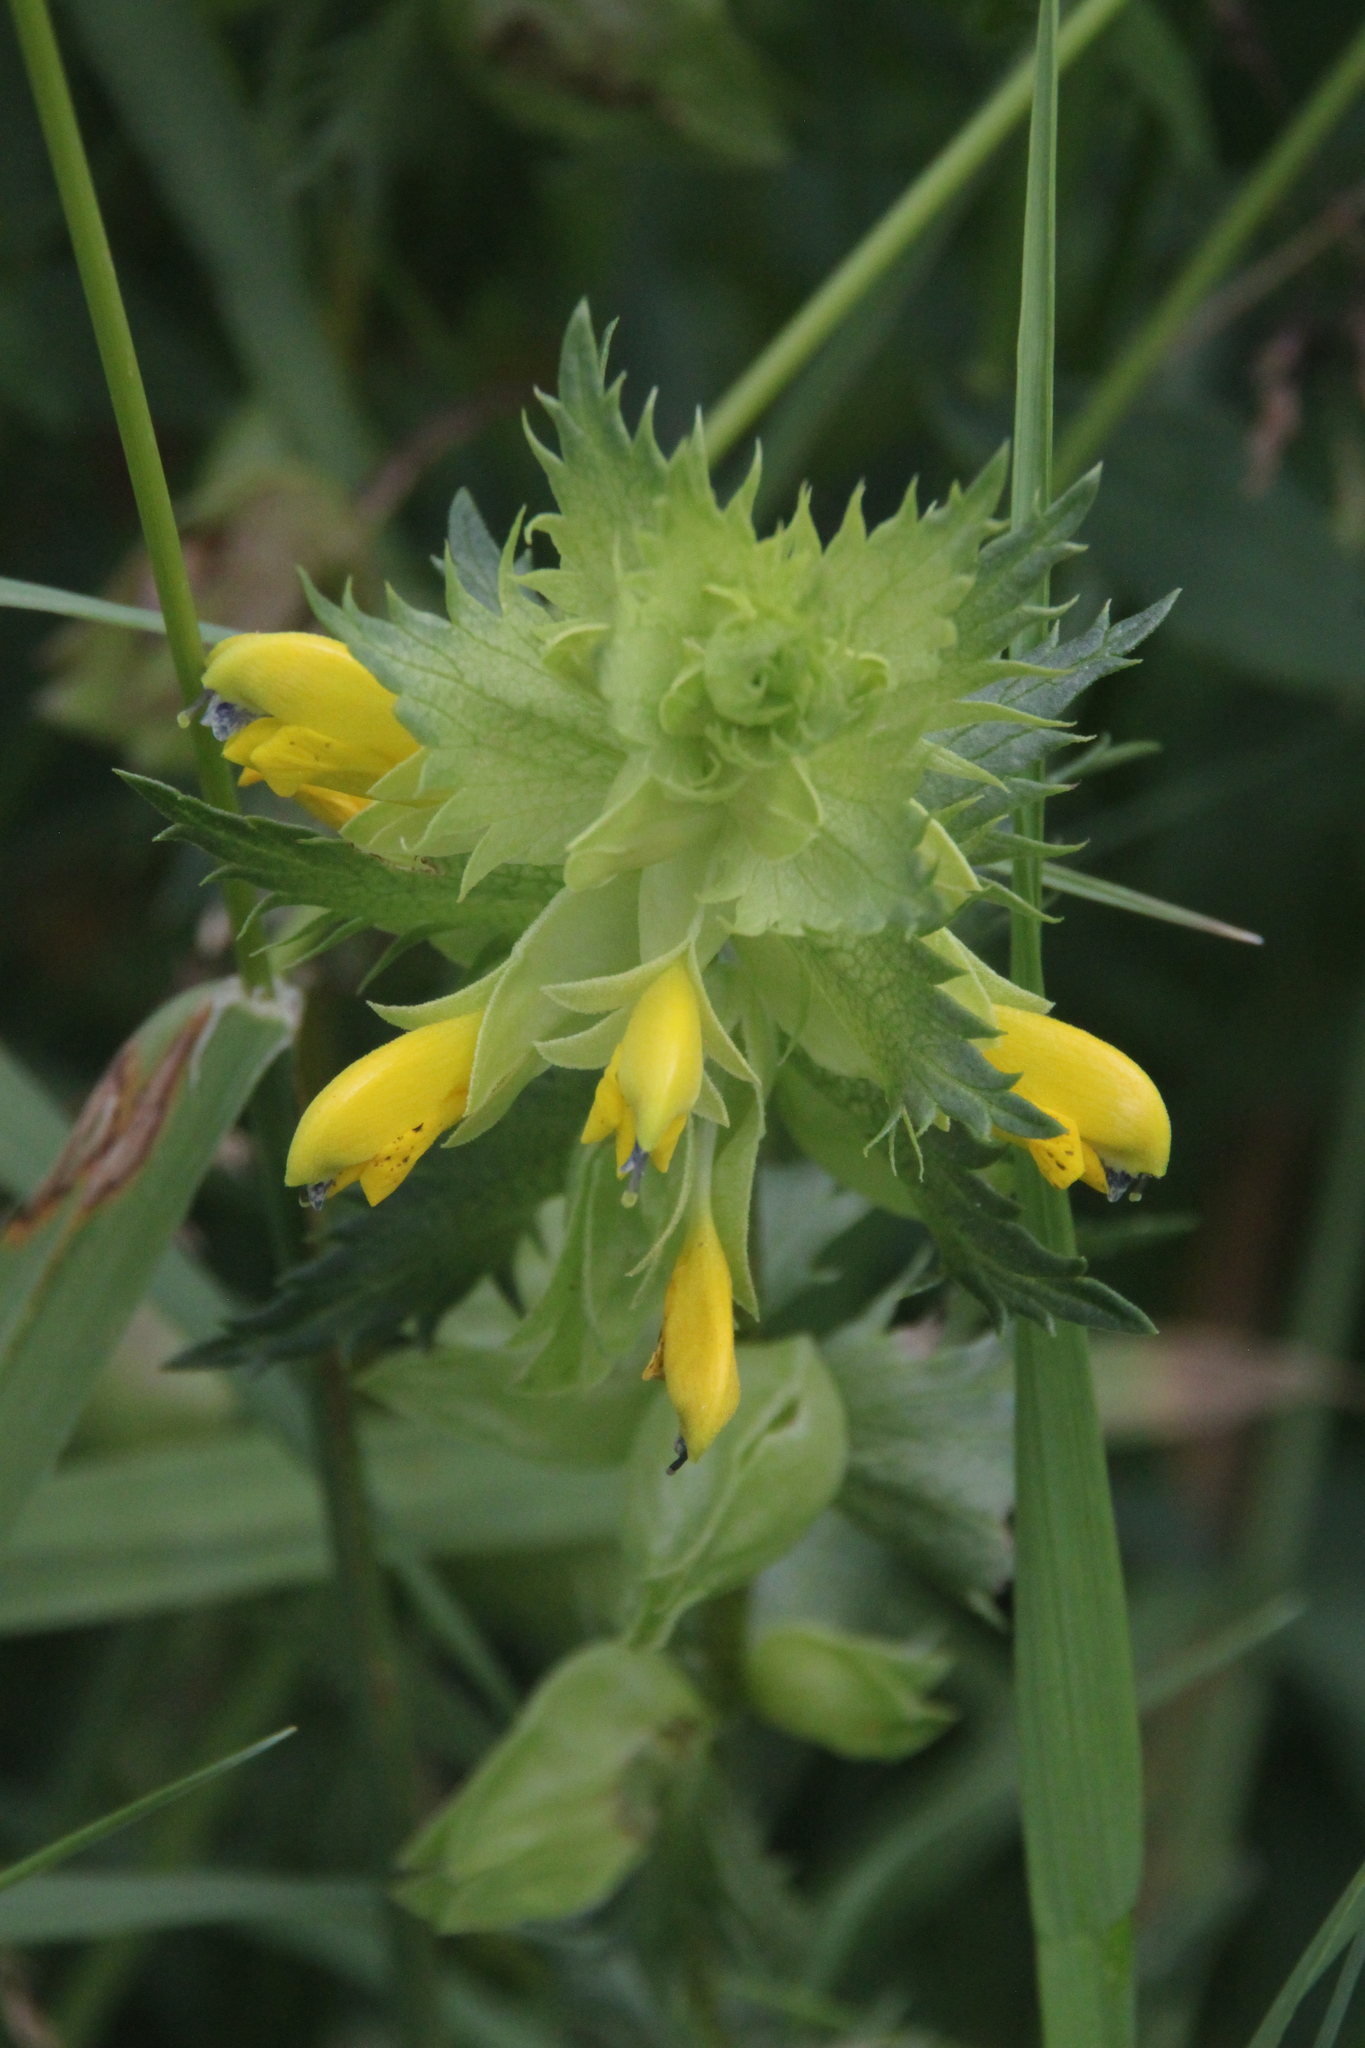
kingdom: Plantae
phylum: Tracheophyta
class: Magnoliopsida
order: Lamiales
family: Orobanchaceae
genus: Rhinanthus
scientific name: Rhinanthus serotinus
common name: Late-flowering yellow rattle
